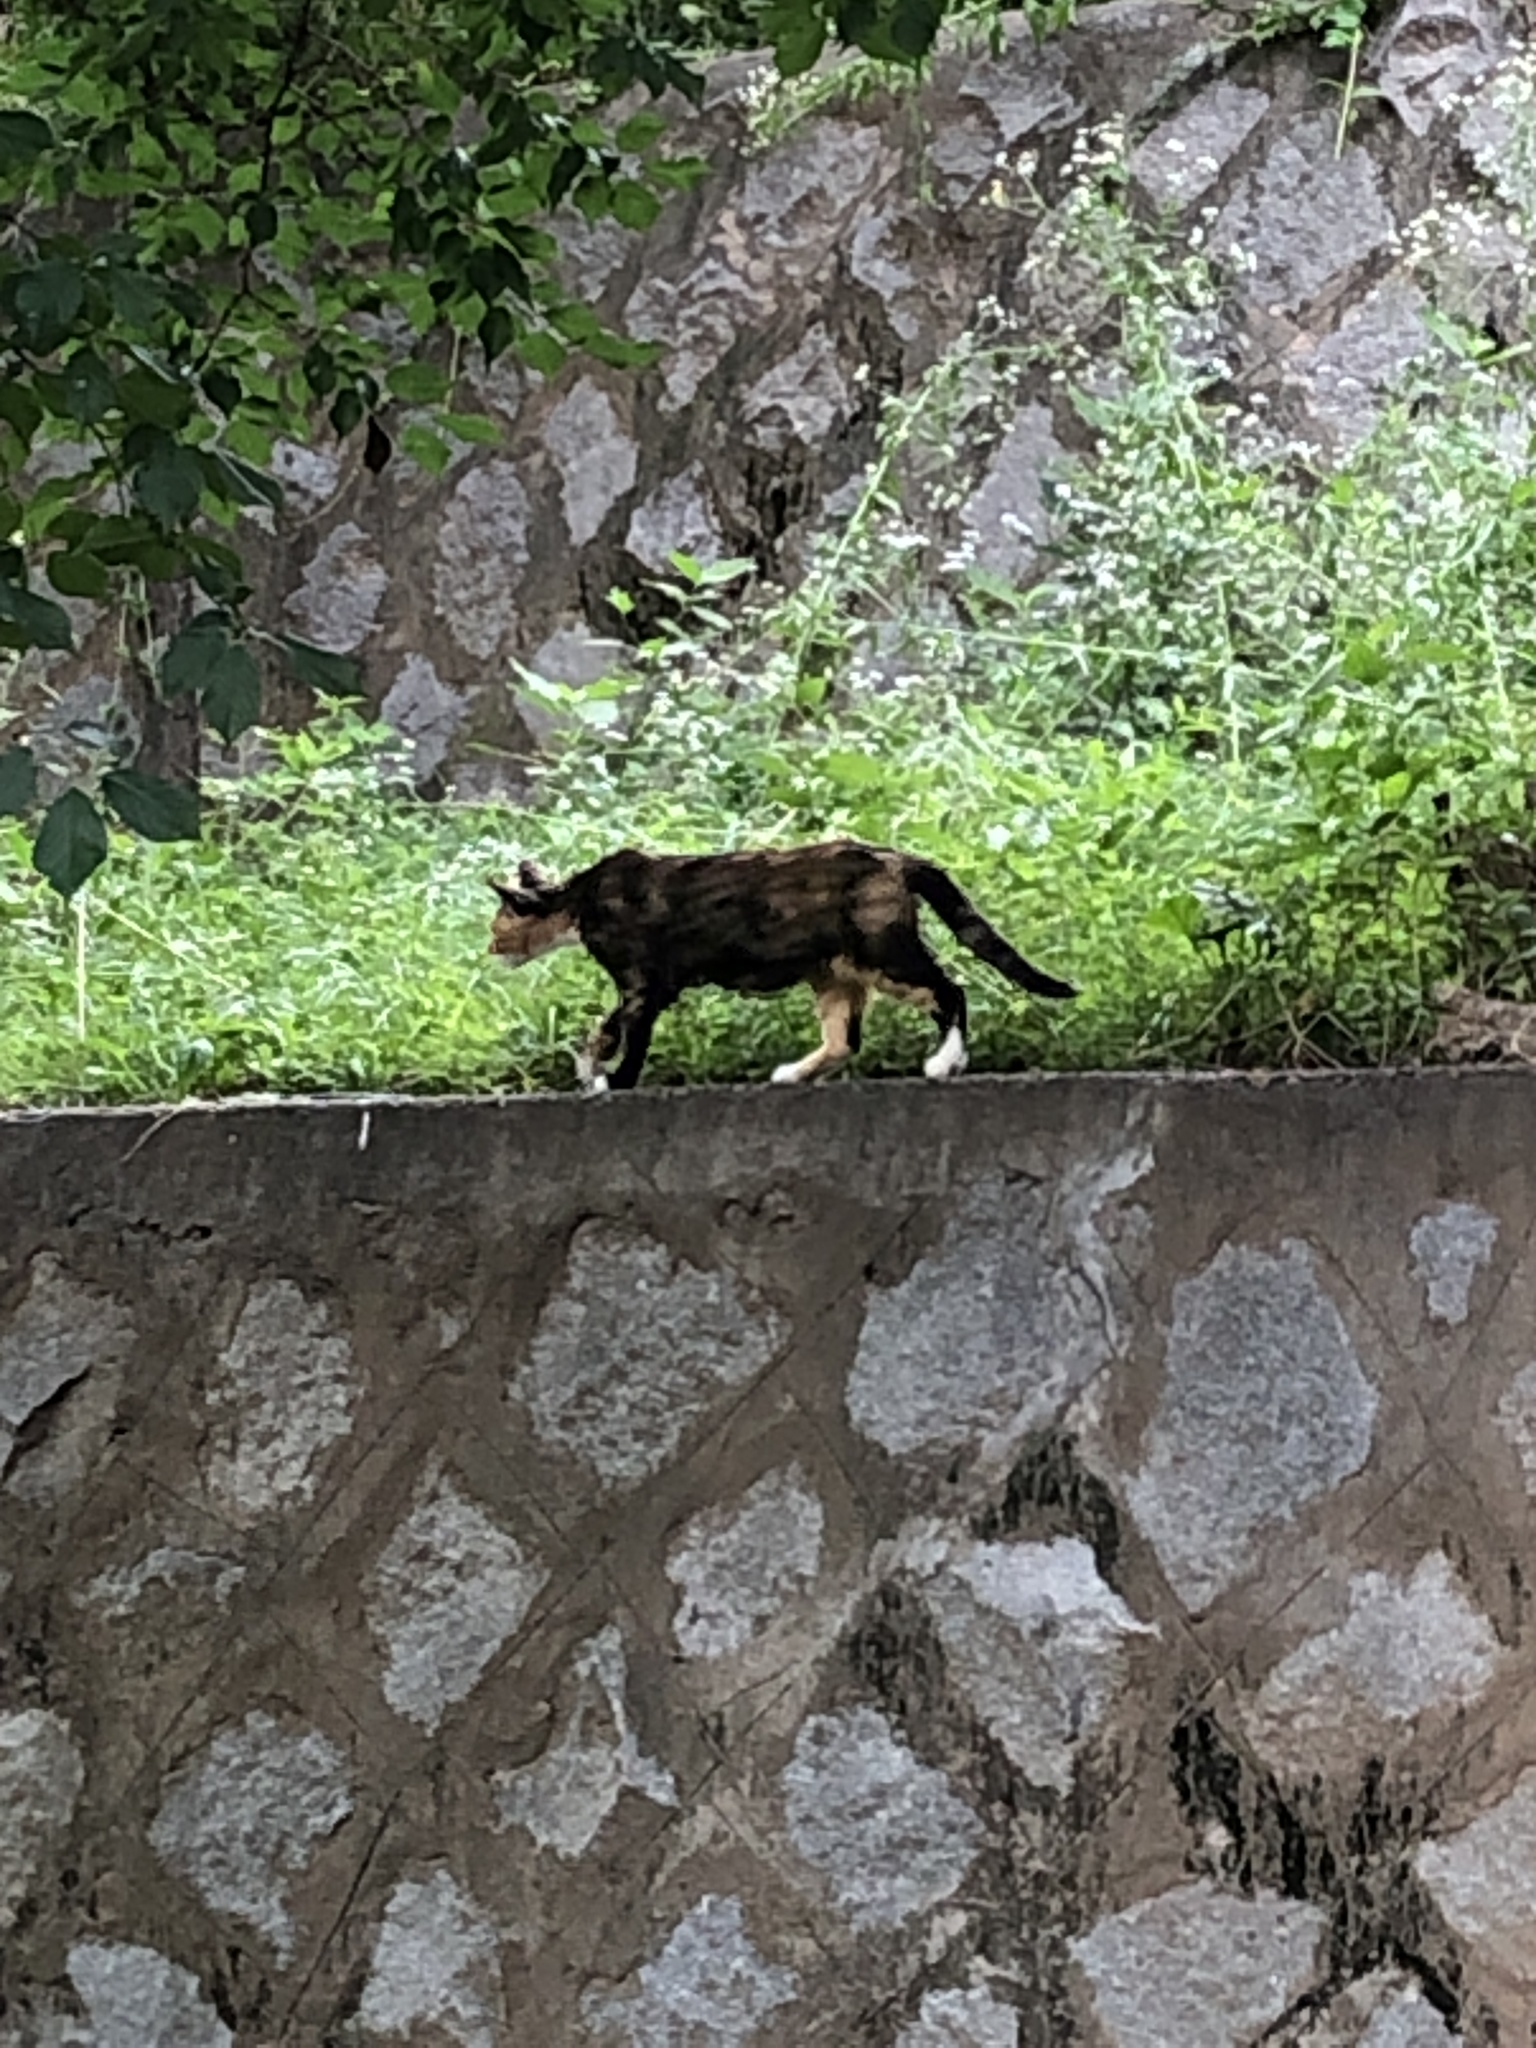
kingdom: Animalia
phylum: Chordata
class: Mammalia
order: Carnivora
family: Felidae
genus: Felis
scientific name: Felis catus
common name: Domestic cat
